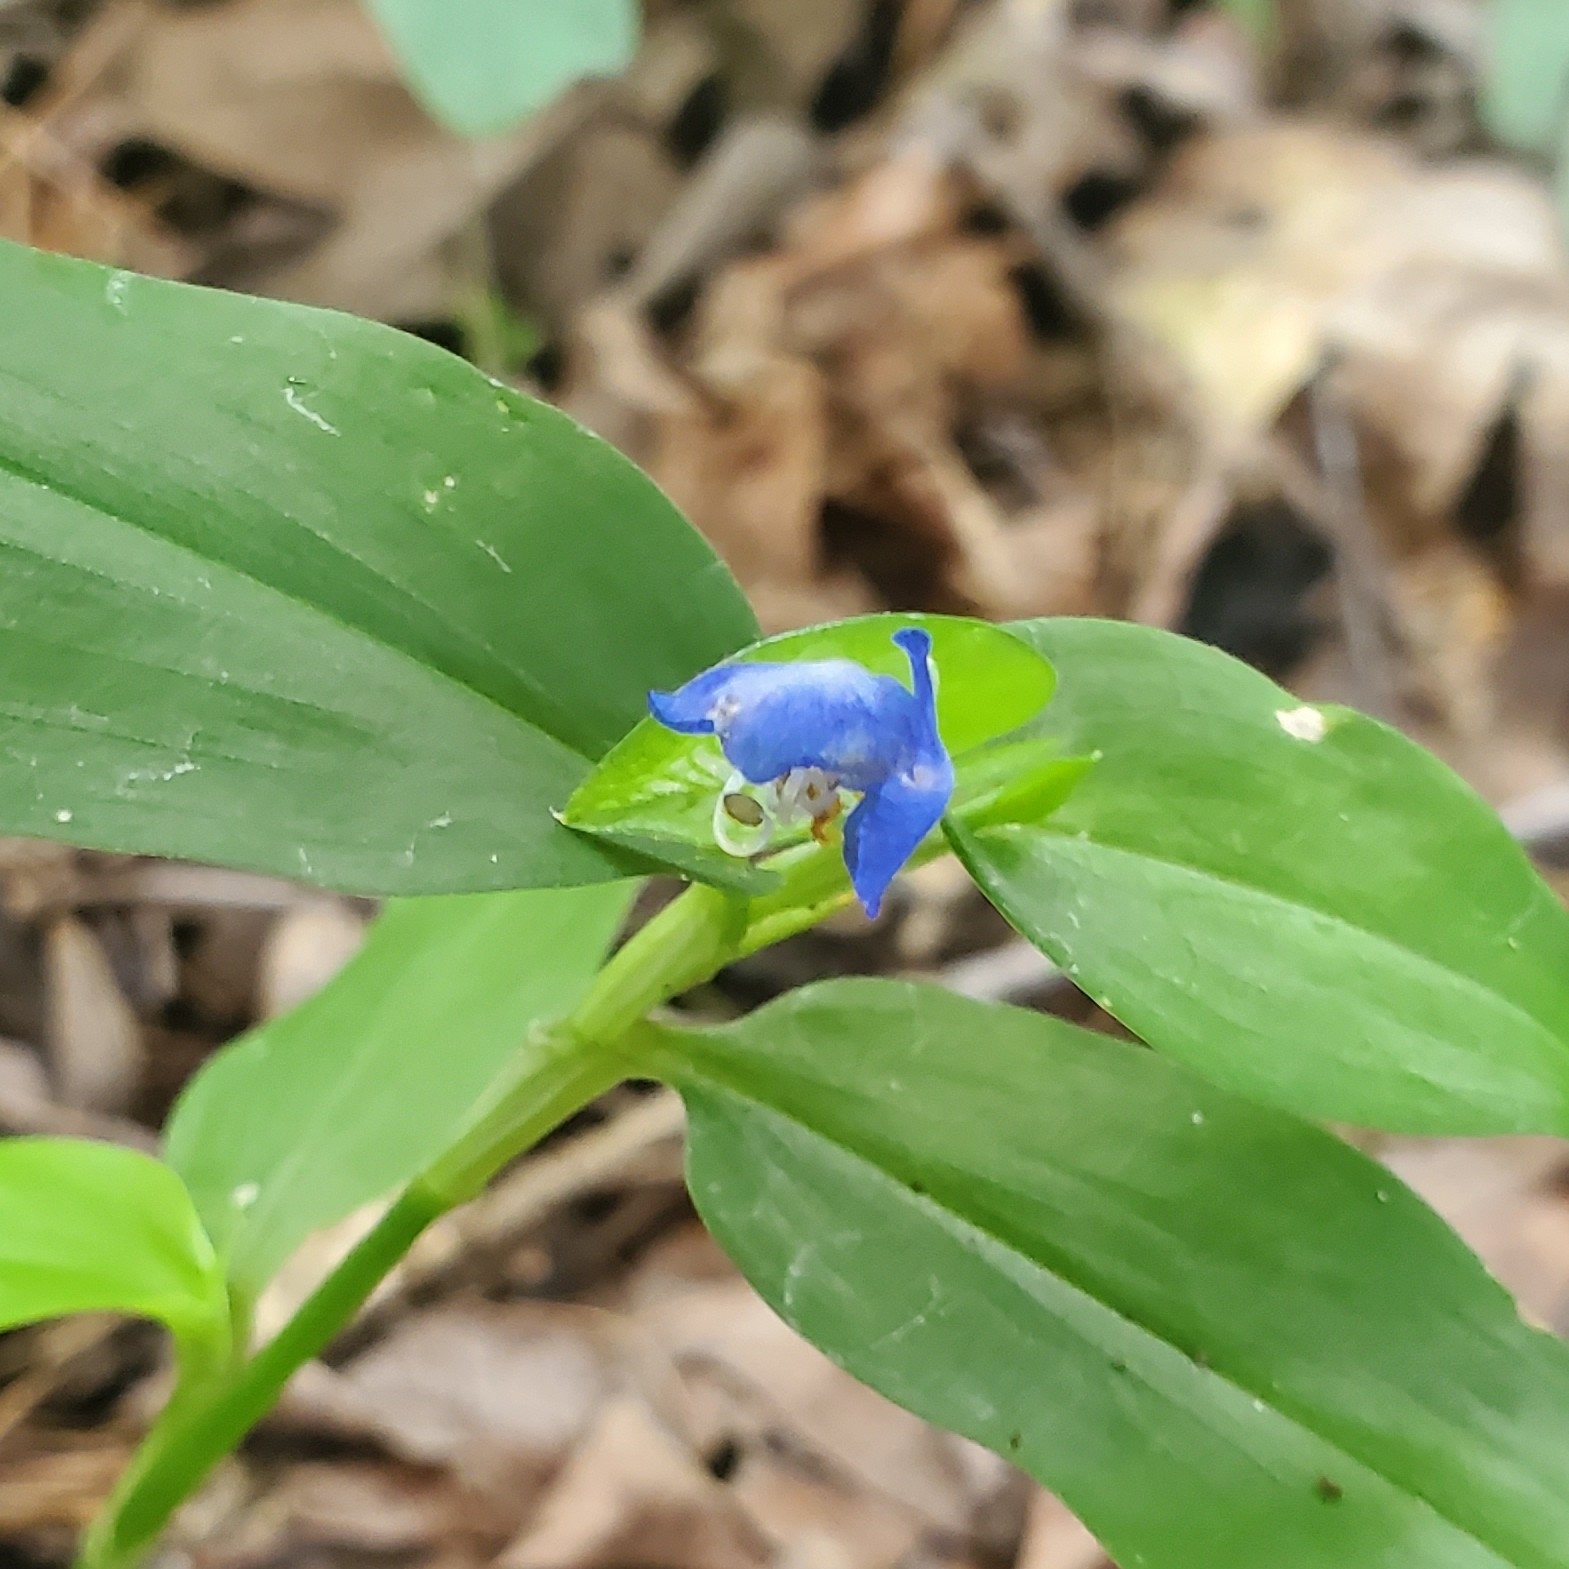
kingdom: Plantae
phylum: Tracheophyta
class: Liliopsida
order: Commelinales
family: Commelinaceae
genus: Commelina
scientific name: Commelina communis
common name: Asiatic dayflower
